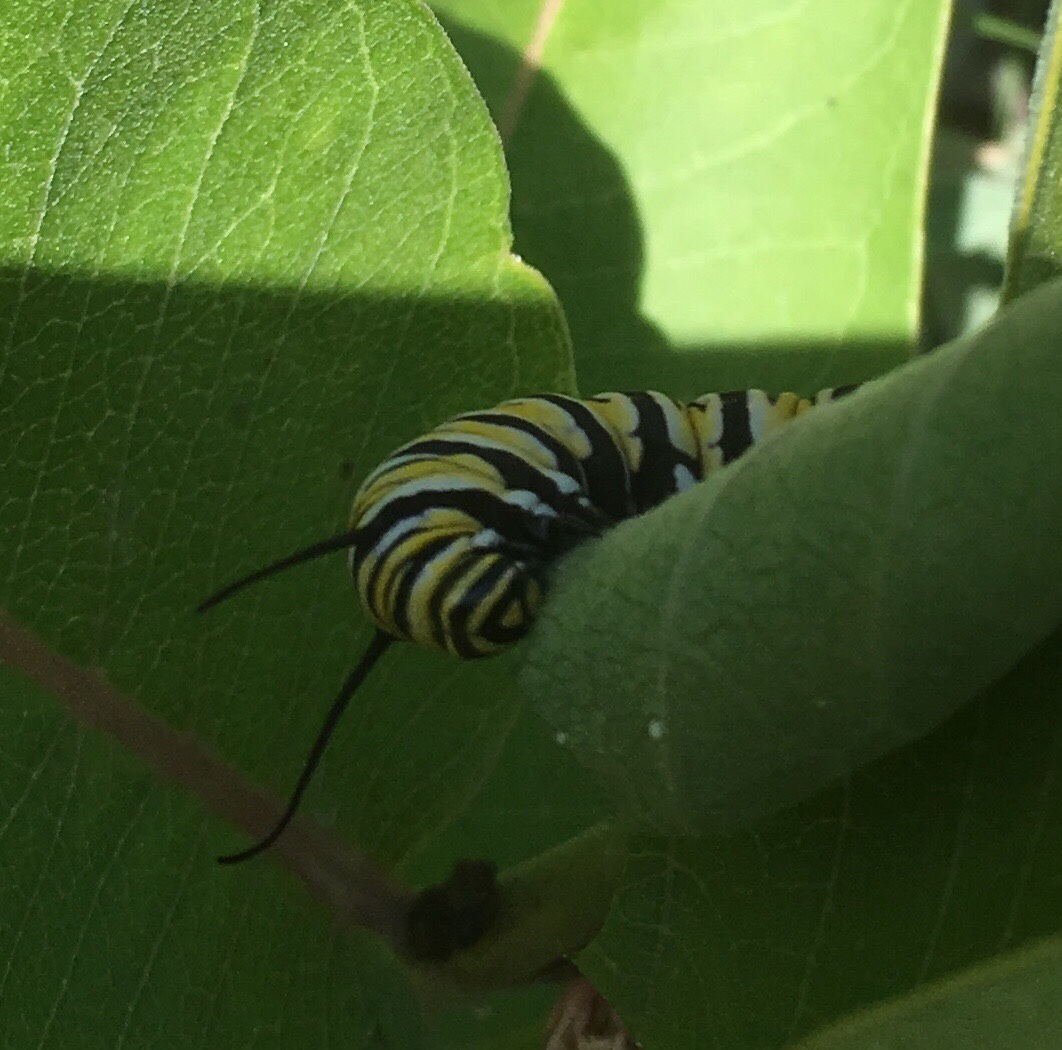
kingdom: Animalia
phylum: Arthropoda
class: Insecta
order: Lepidoptera
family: Nymphalidae
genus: Danaus
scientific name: Danaus plexippus
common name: Monarch
